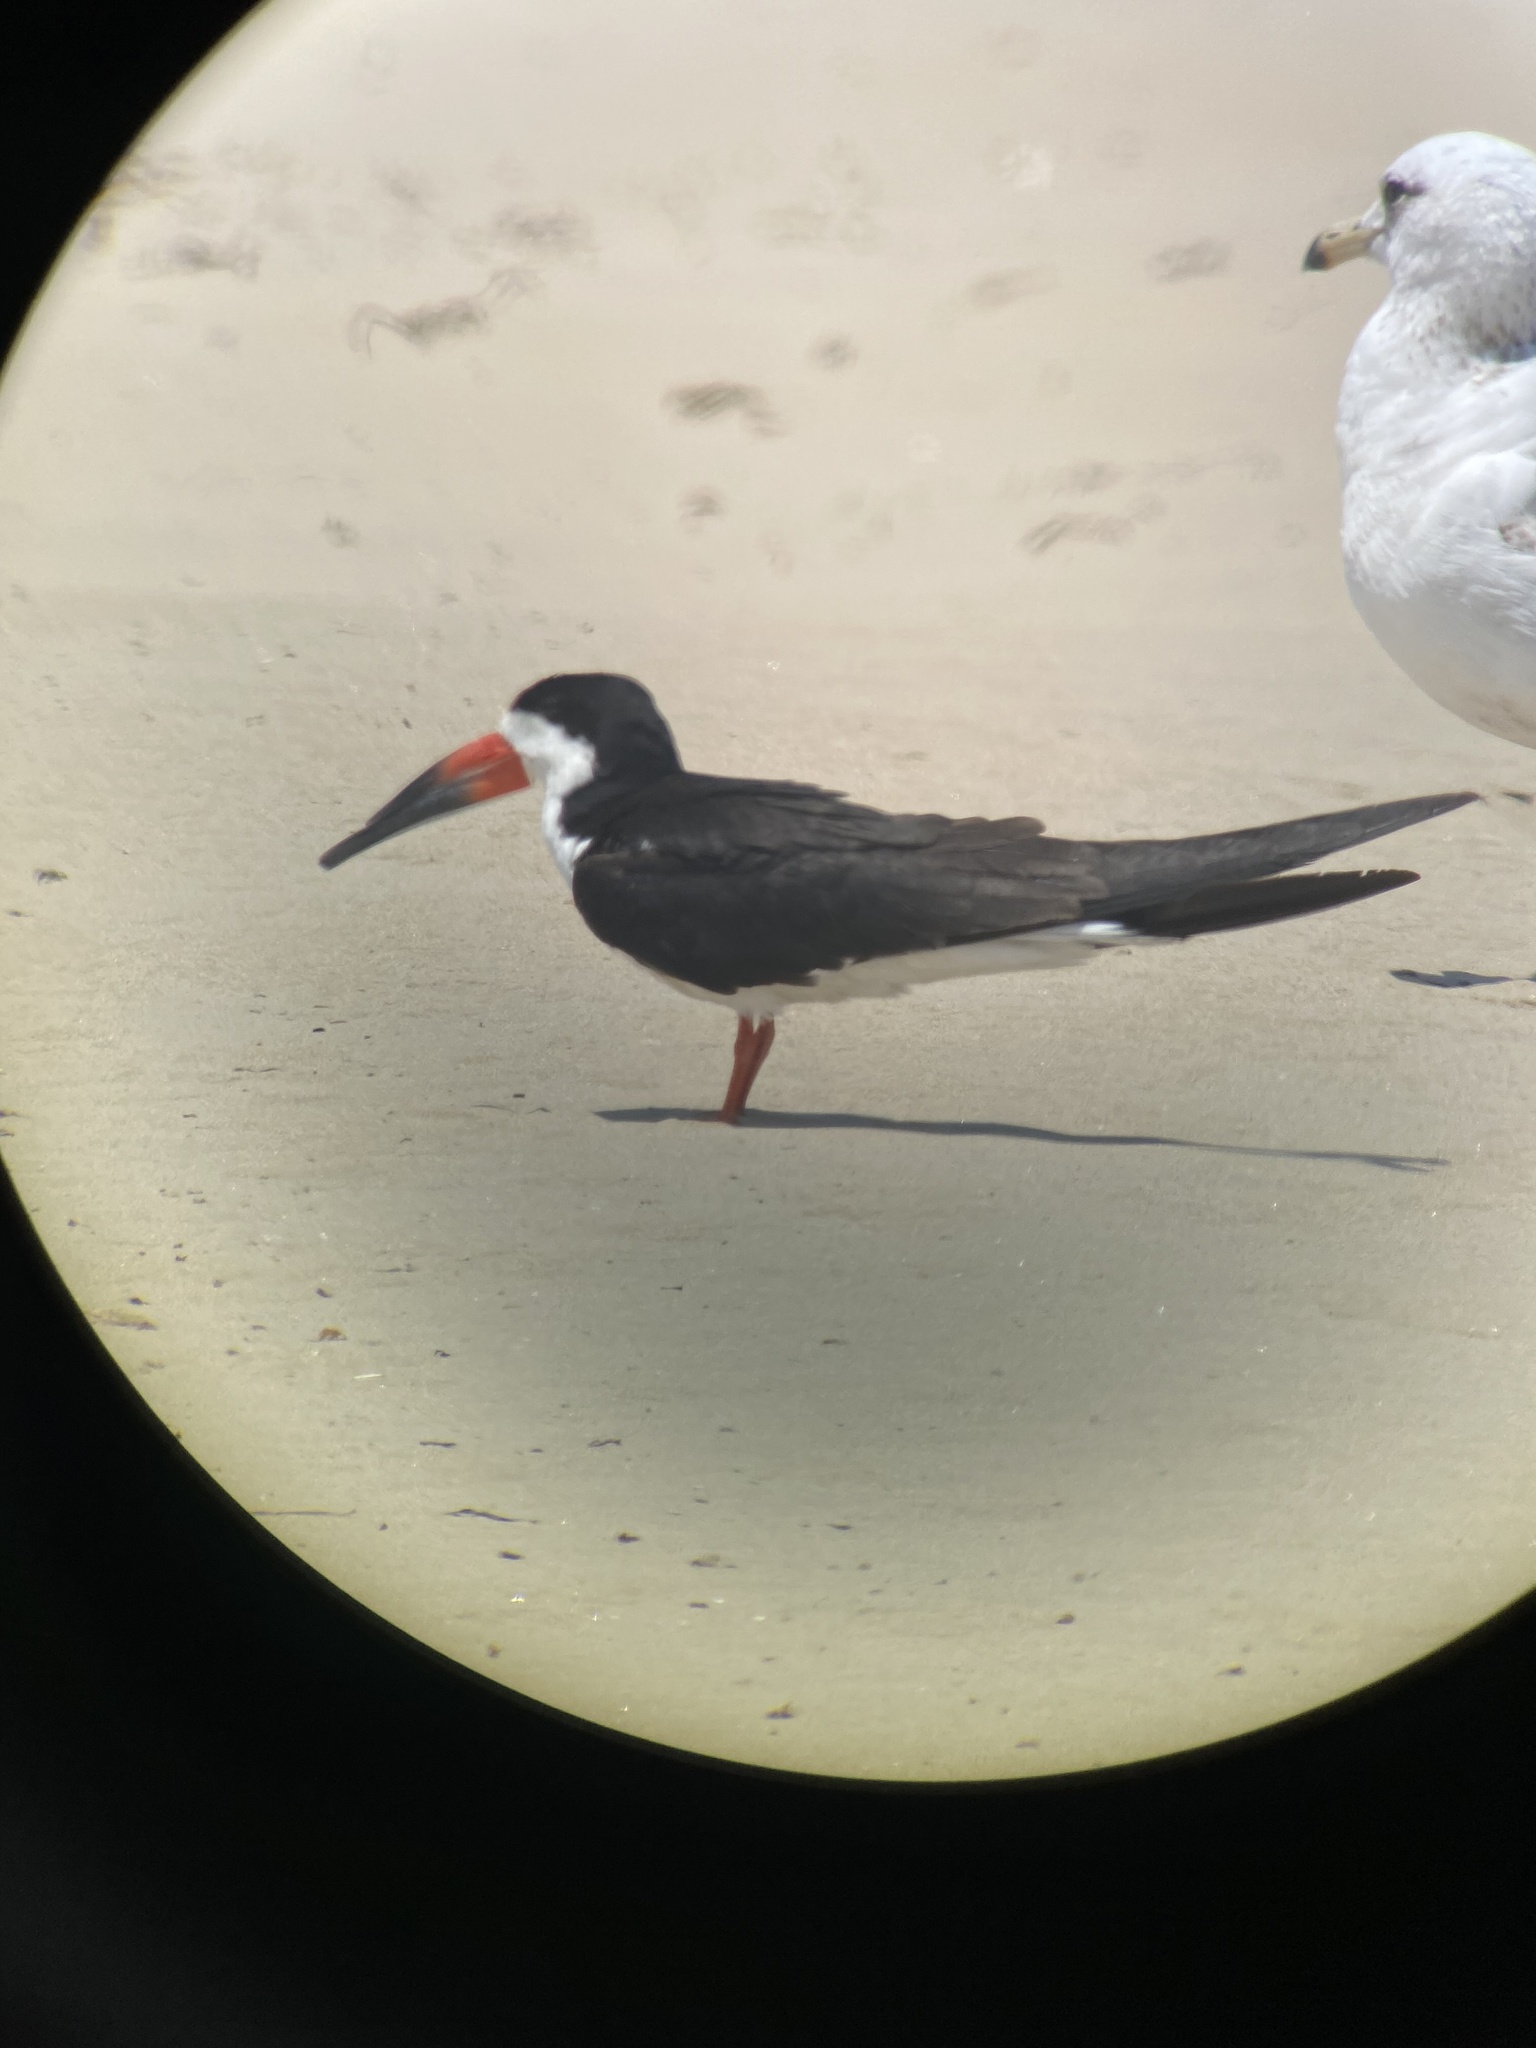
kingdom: Animalia
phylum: Chordata
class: Aves
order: Charadriiformes
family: Laridae
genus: Rynchops
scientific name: Rynchops niger
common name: Black skimmer
